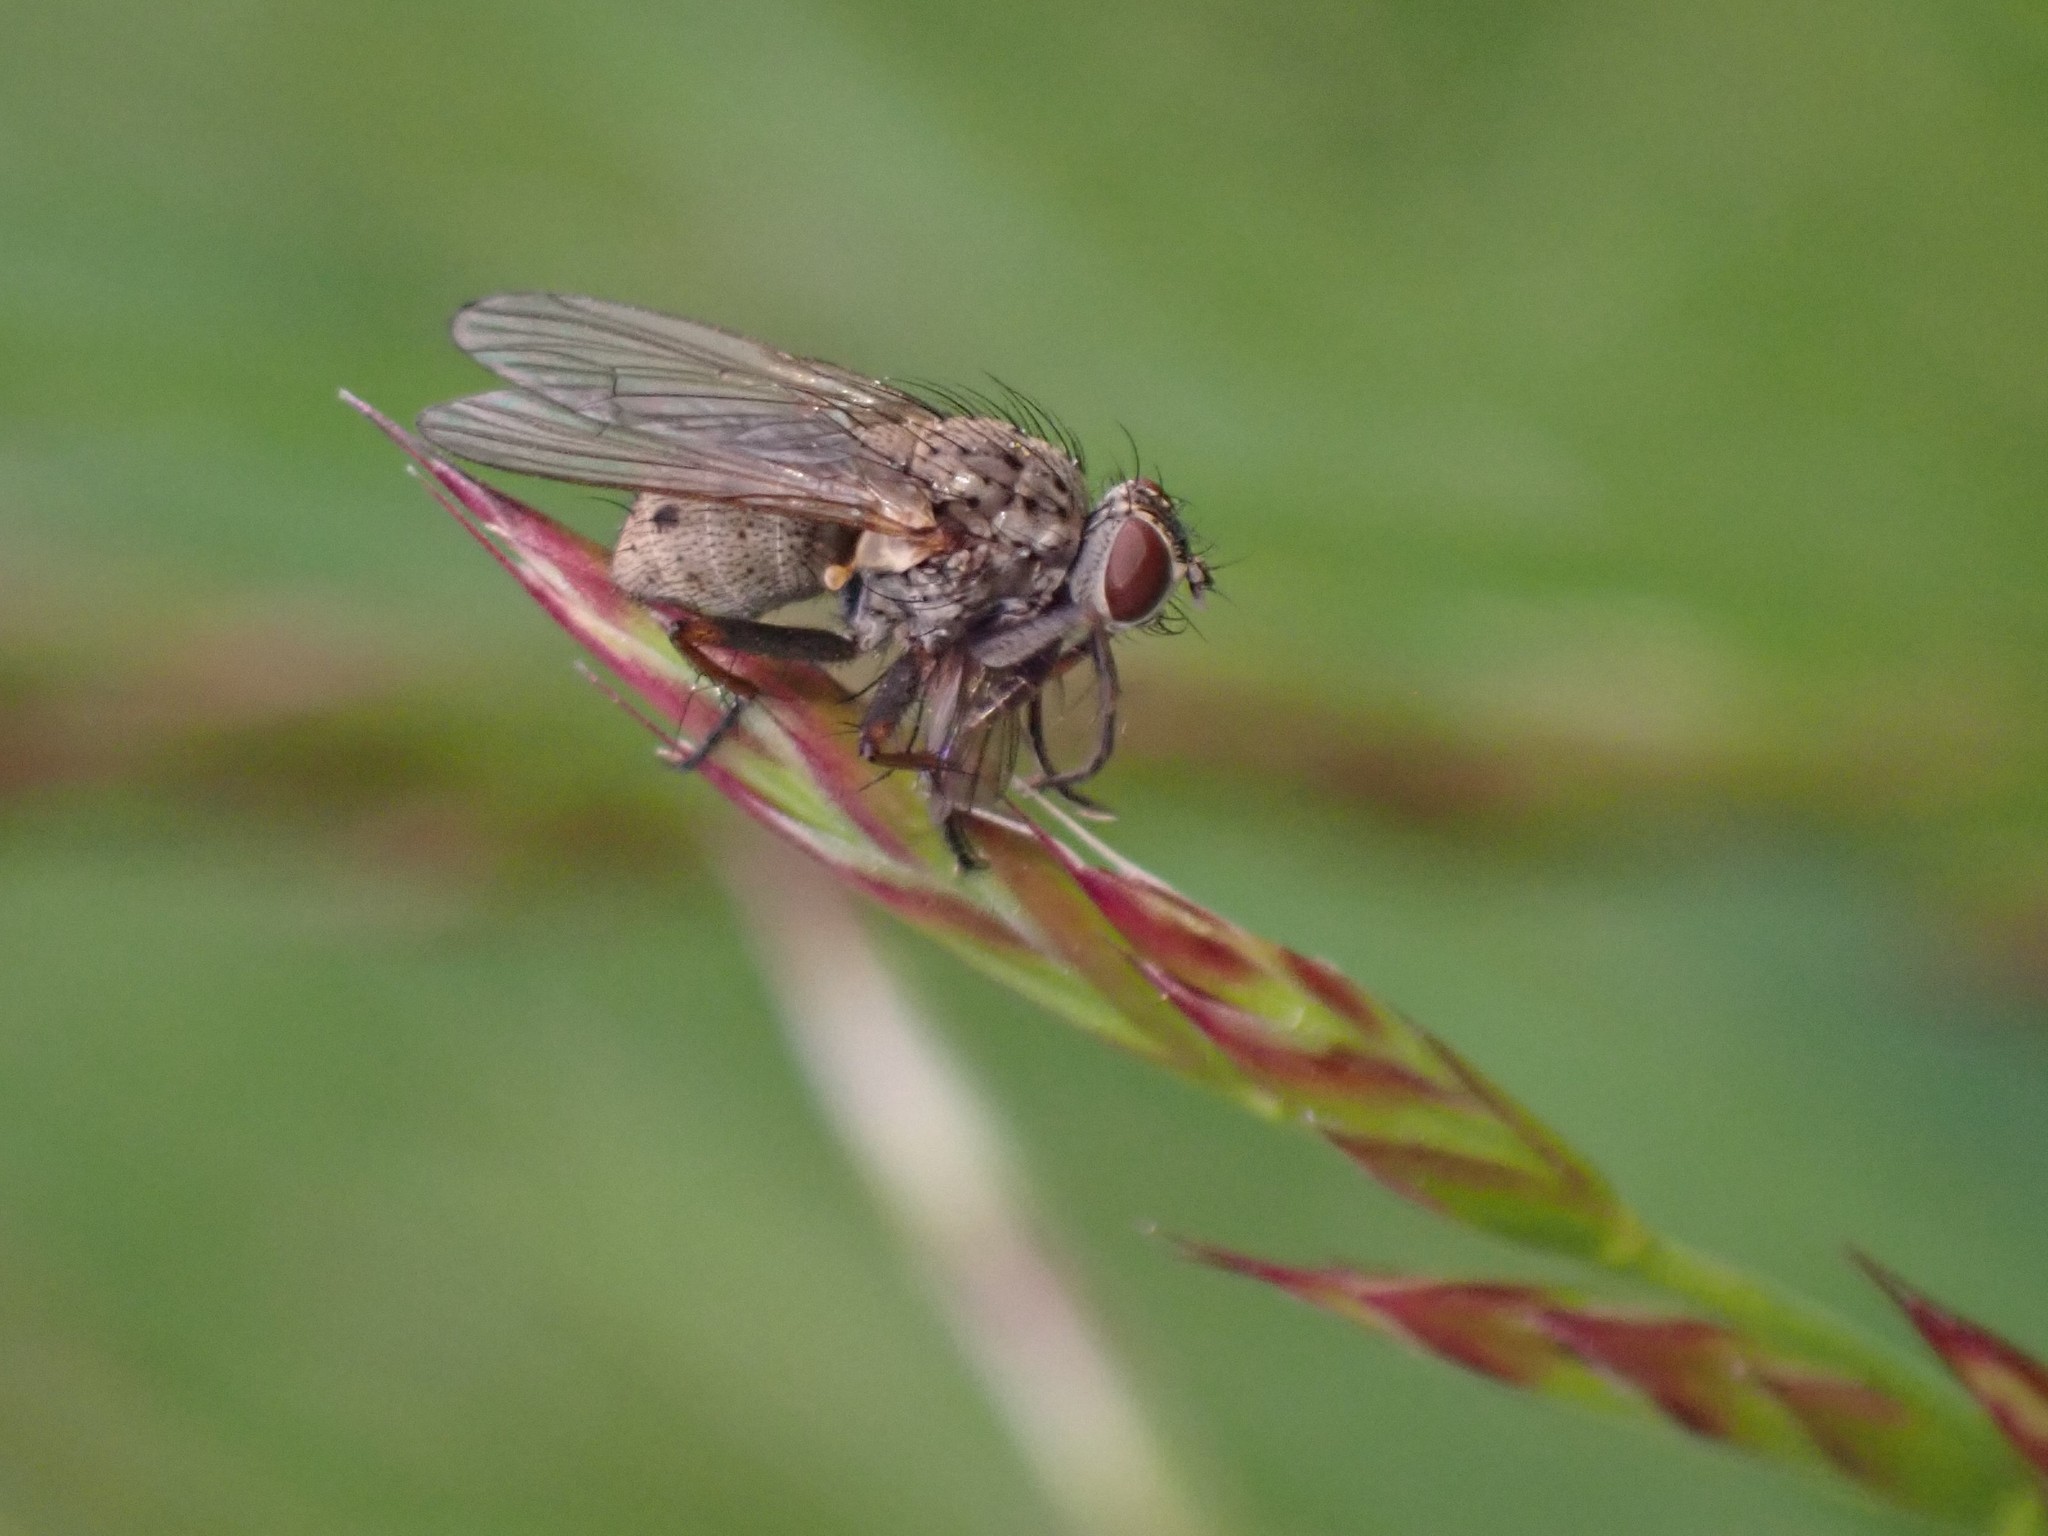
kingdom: Animalia
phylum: Arthropoda
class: Insecta
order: Diptera
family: Muscidae
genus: Coenosia
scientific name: Coenosia tigrina
